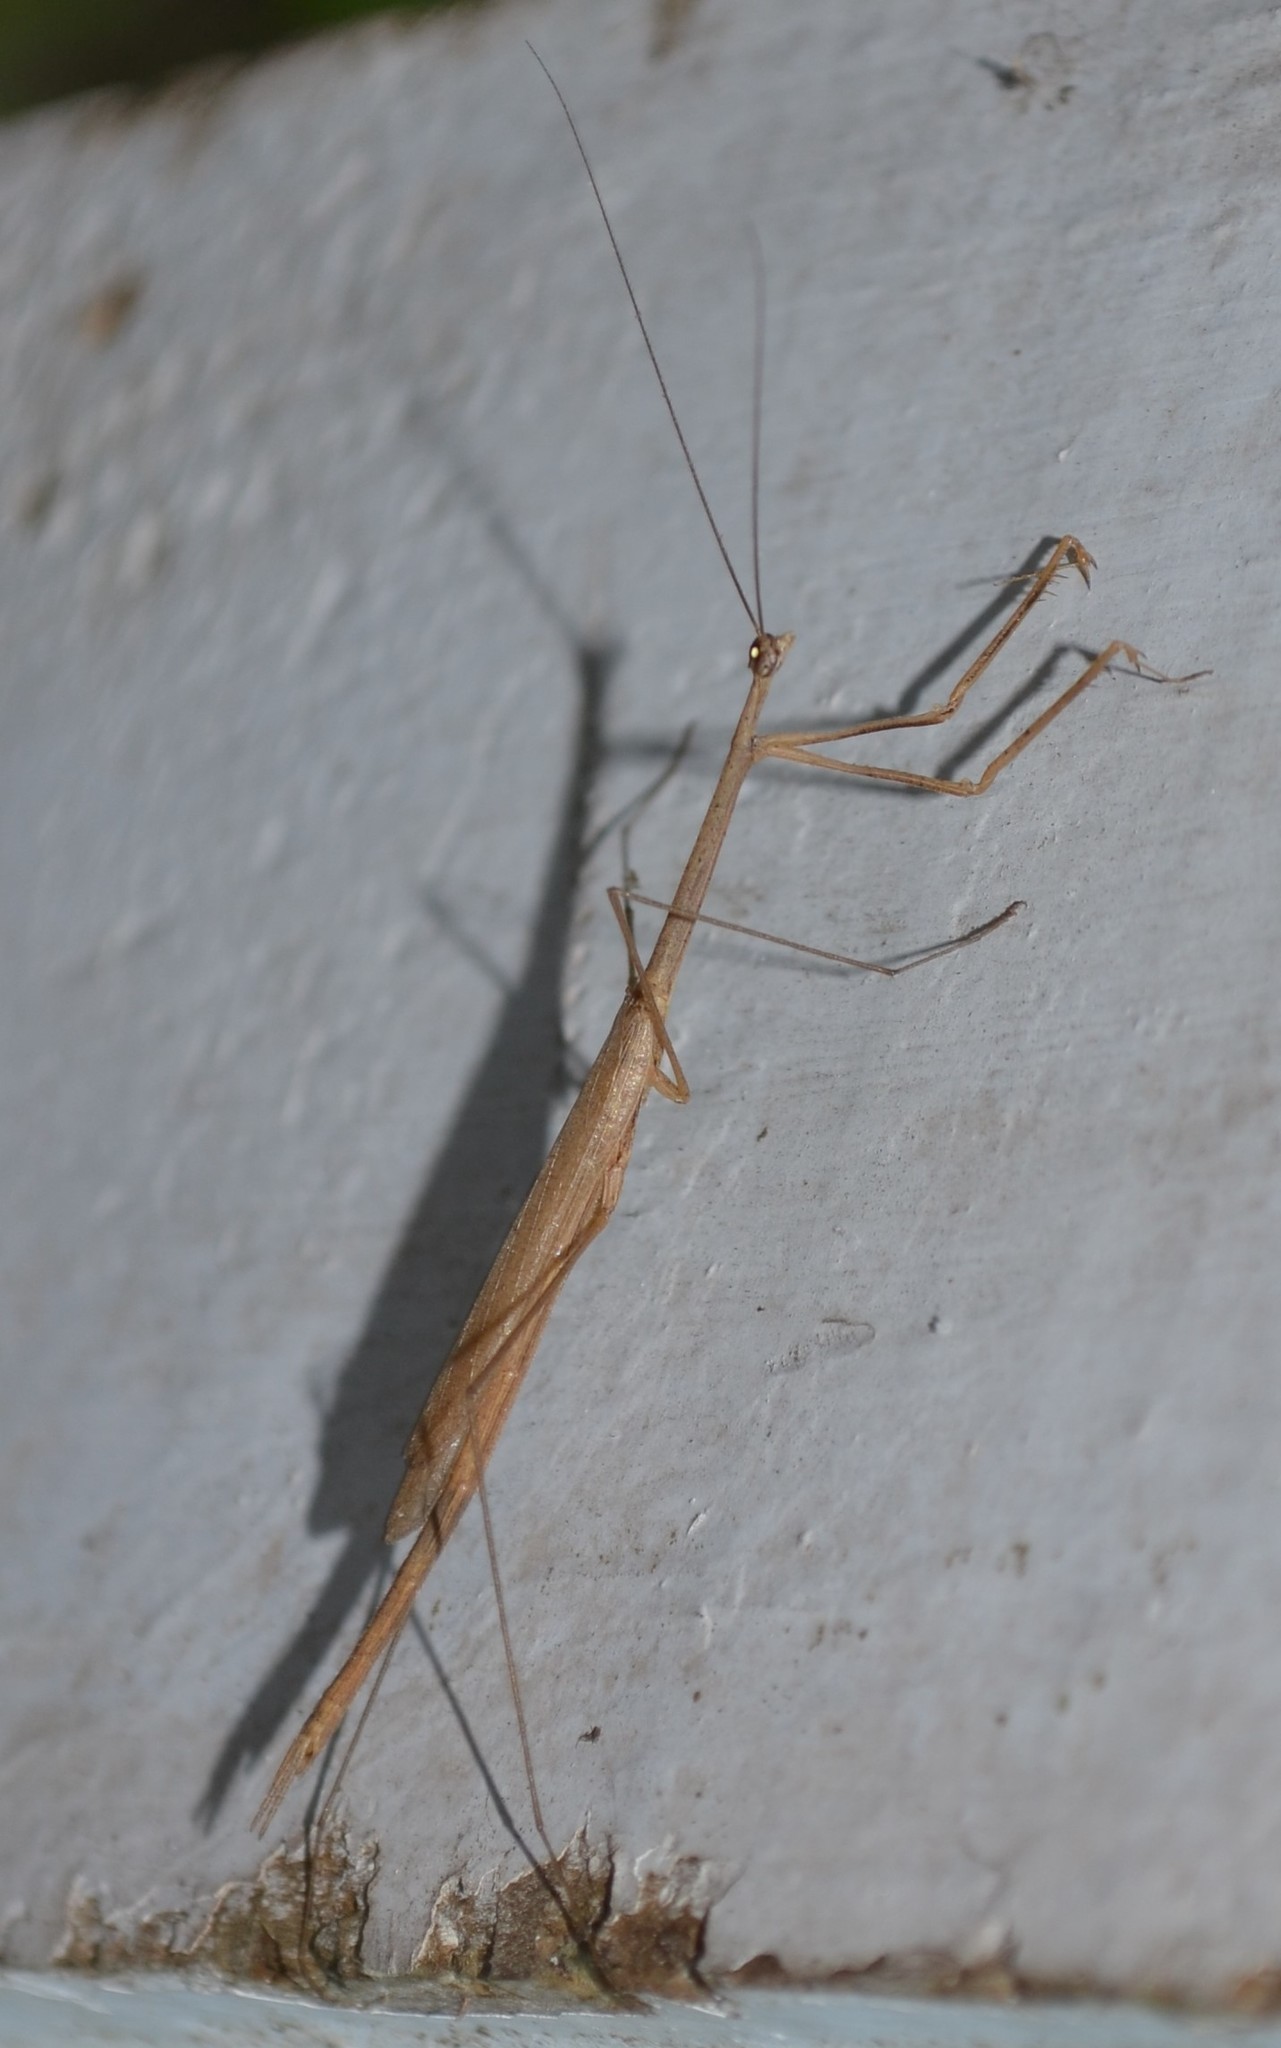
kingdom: Animalia
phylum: Arthropoda
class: Insecta
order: Mantodea
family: Thespidae
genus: Thesprotia
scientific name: Thesprotia graminis
